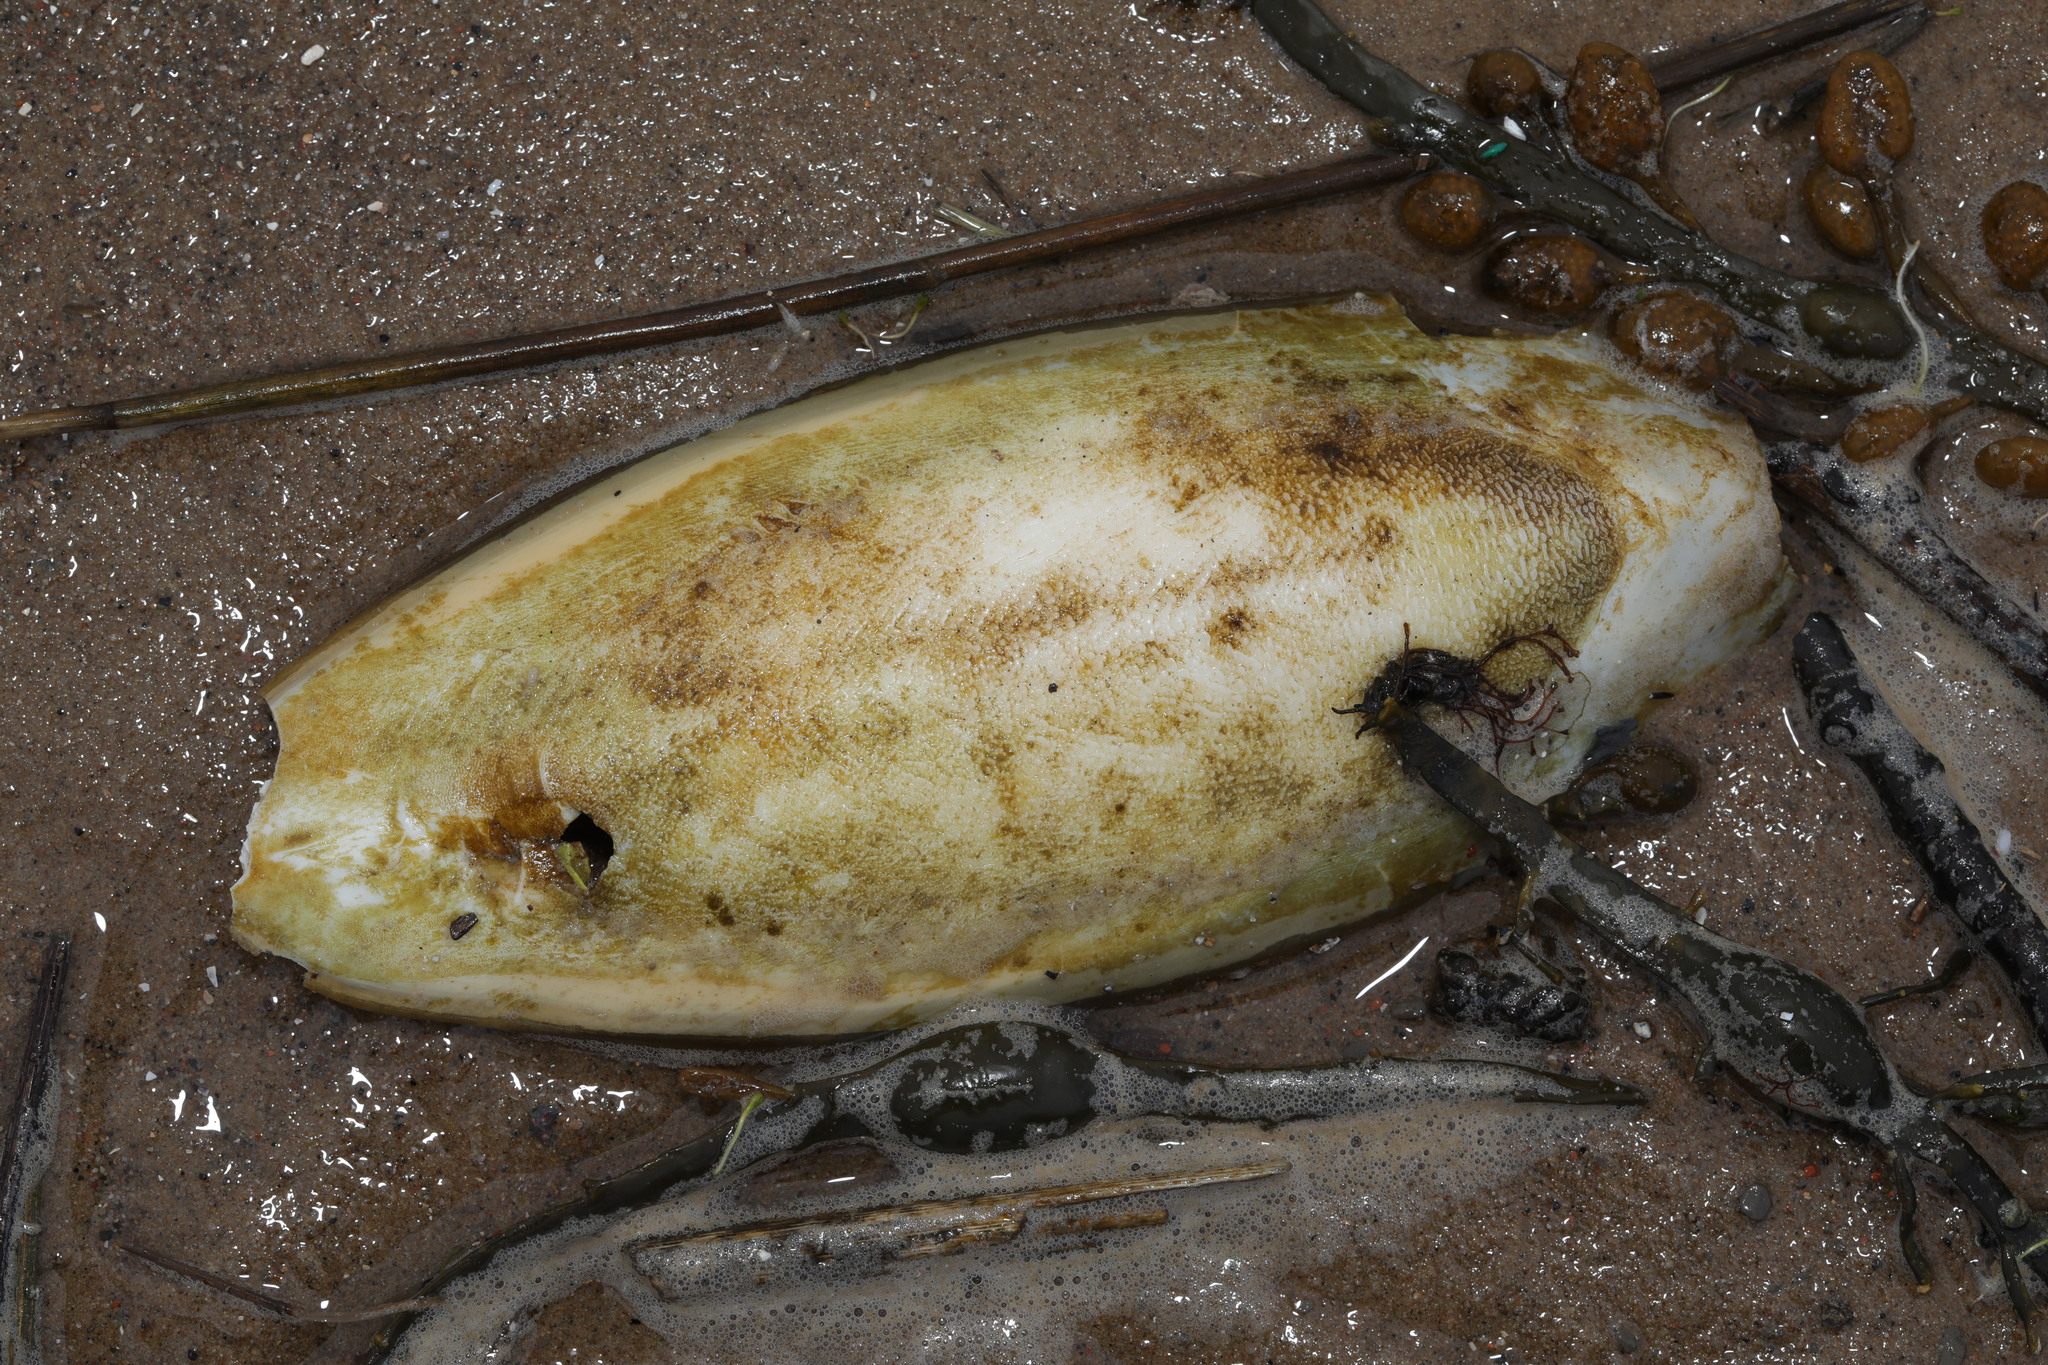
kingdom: Animalia
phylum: Mollusca
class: Cephalopoda
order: Sepiida
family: Sepiidae
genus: Sepia
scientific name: Sepia officinalis
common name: Common cuttlefish
